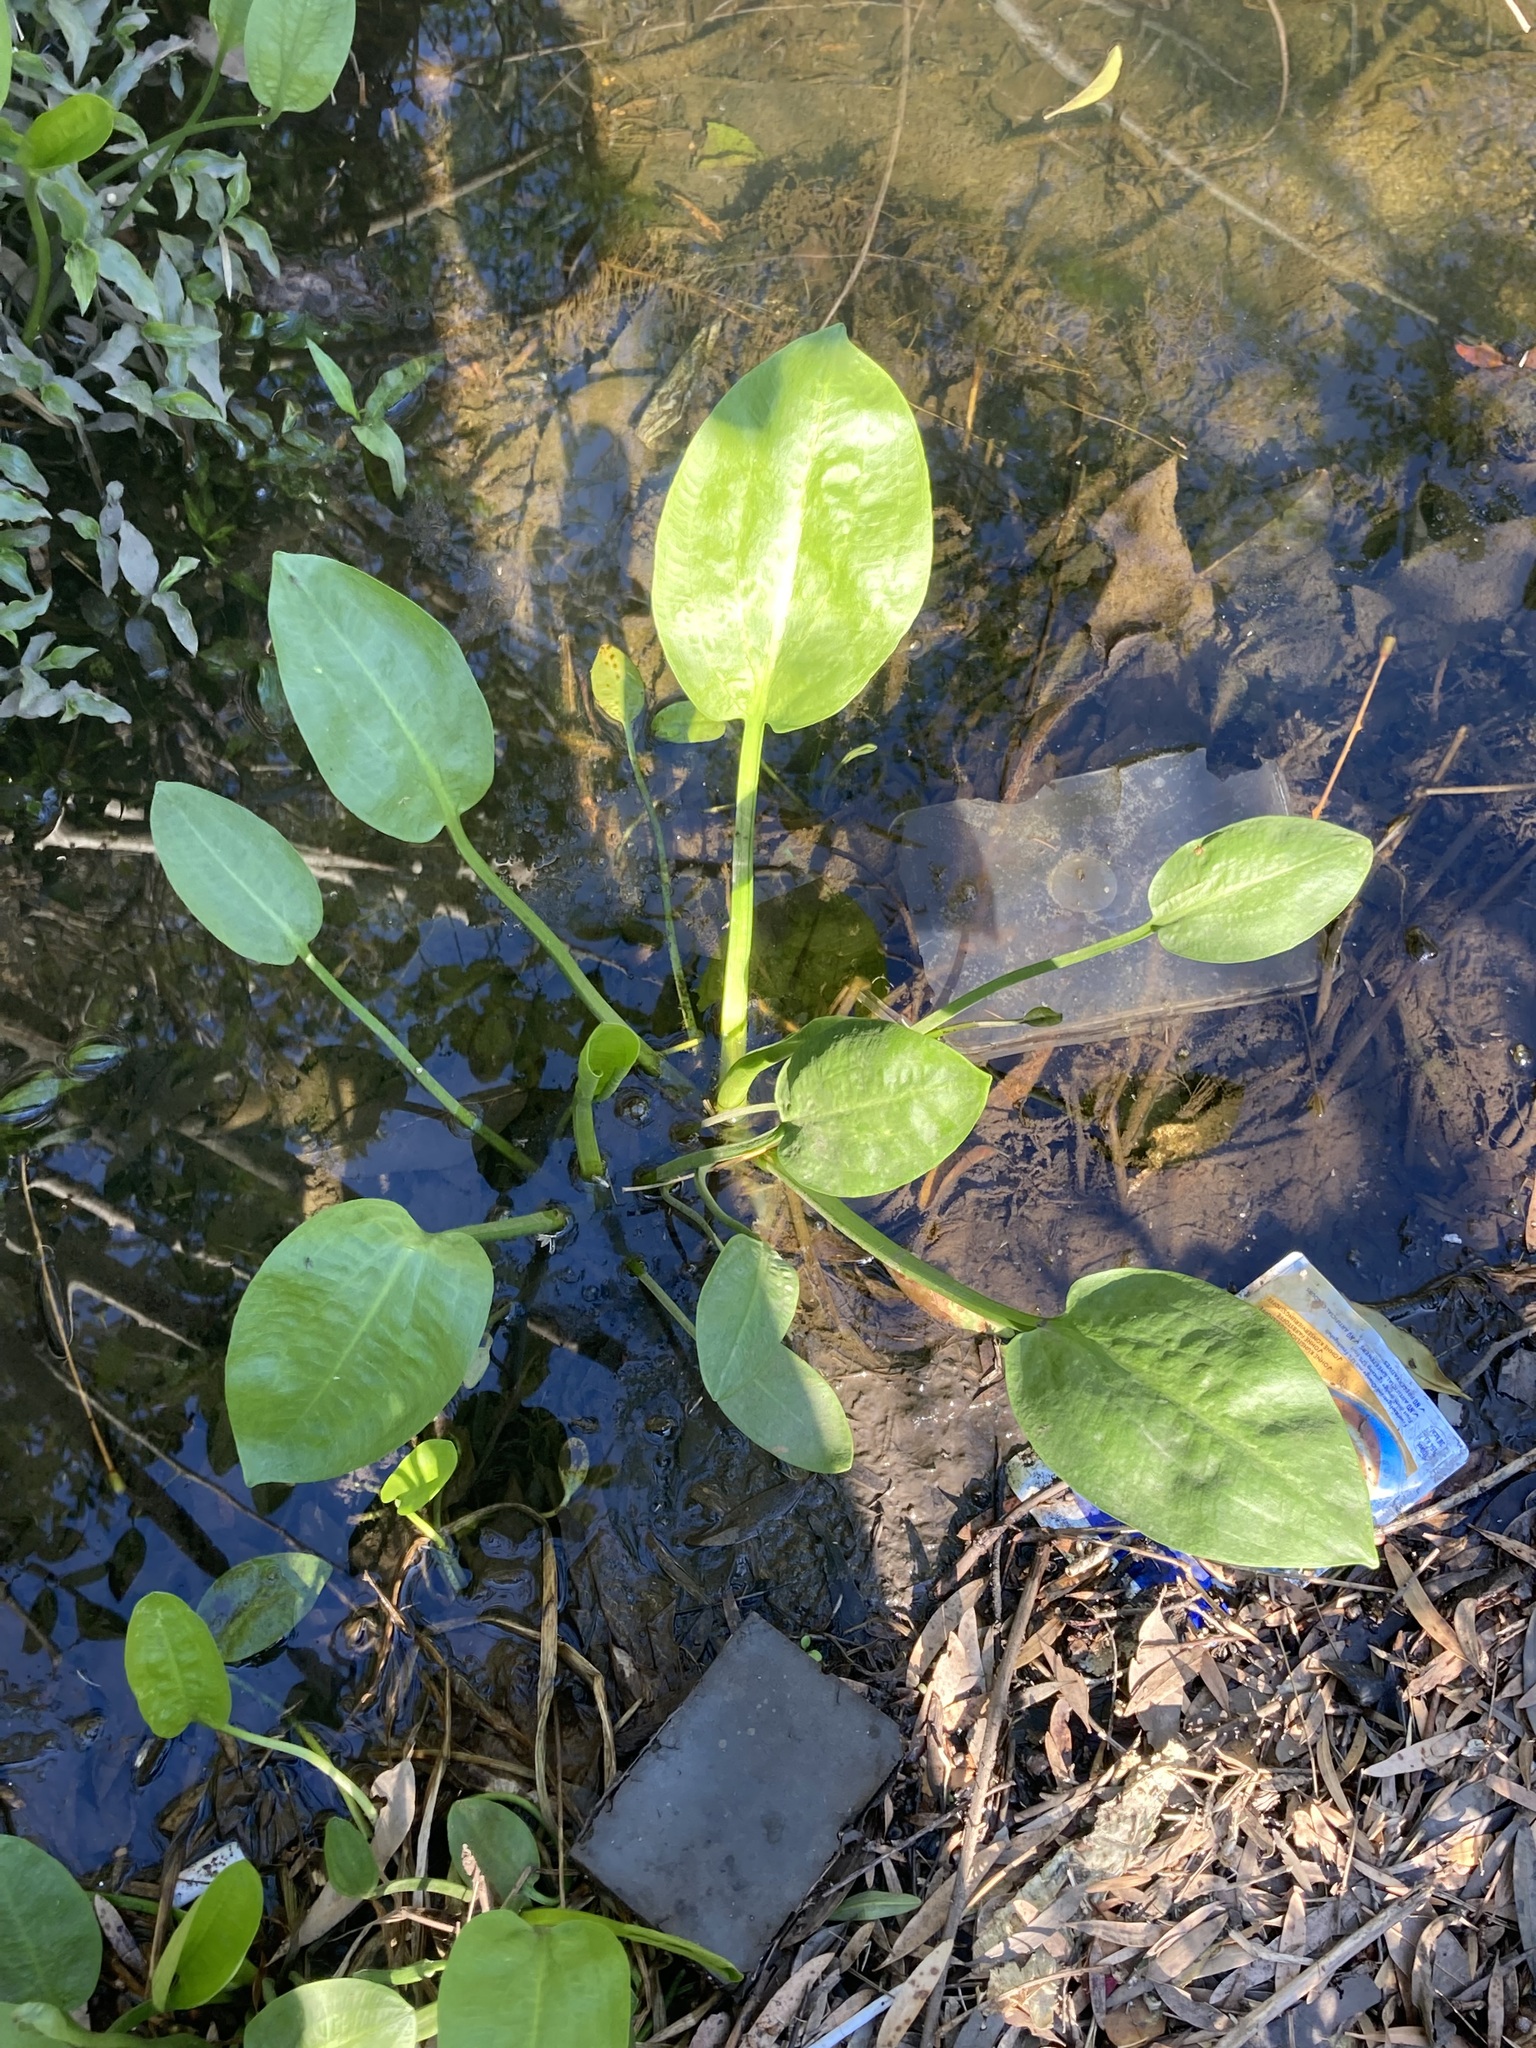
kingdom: Plantae
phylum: Tracheophyta
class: Liliopsida
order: Alismatales
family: Alismataceae
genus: Alisma
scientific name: Alisma plantago-aquatica
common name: Water-plantain
